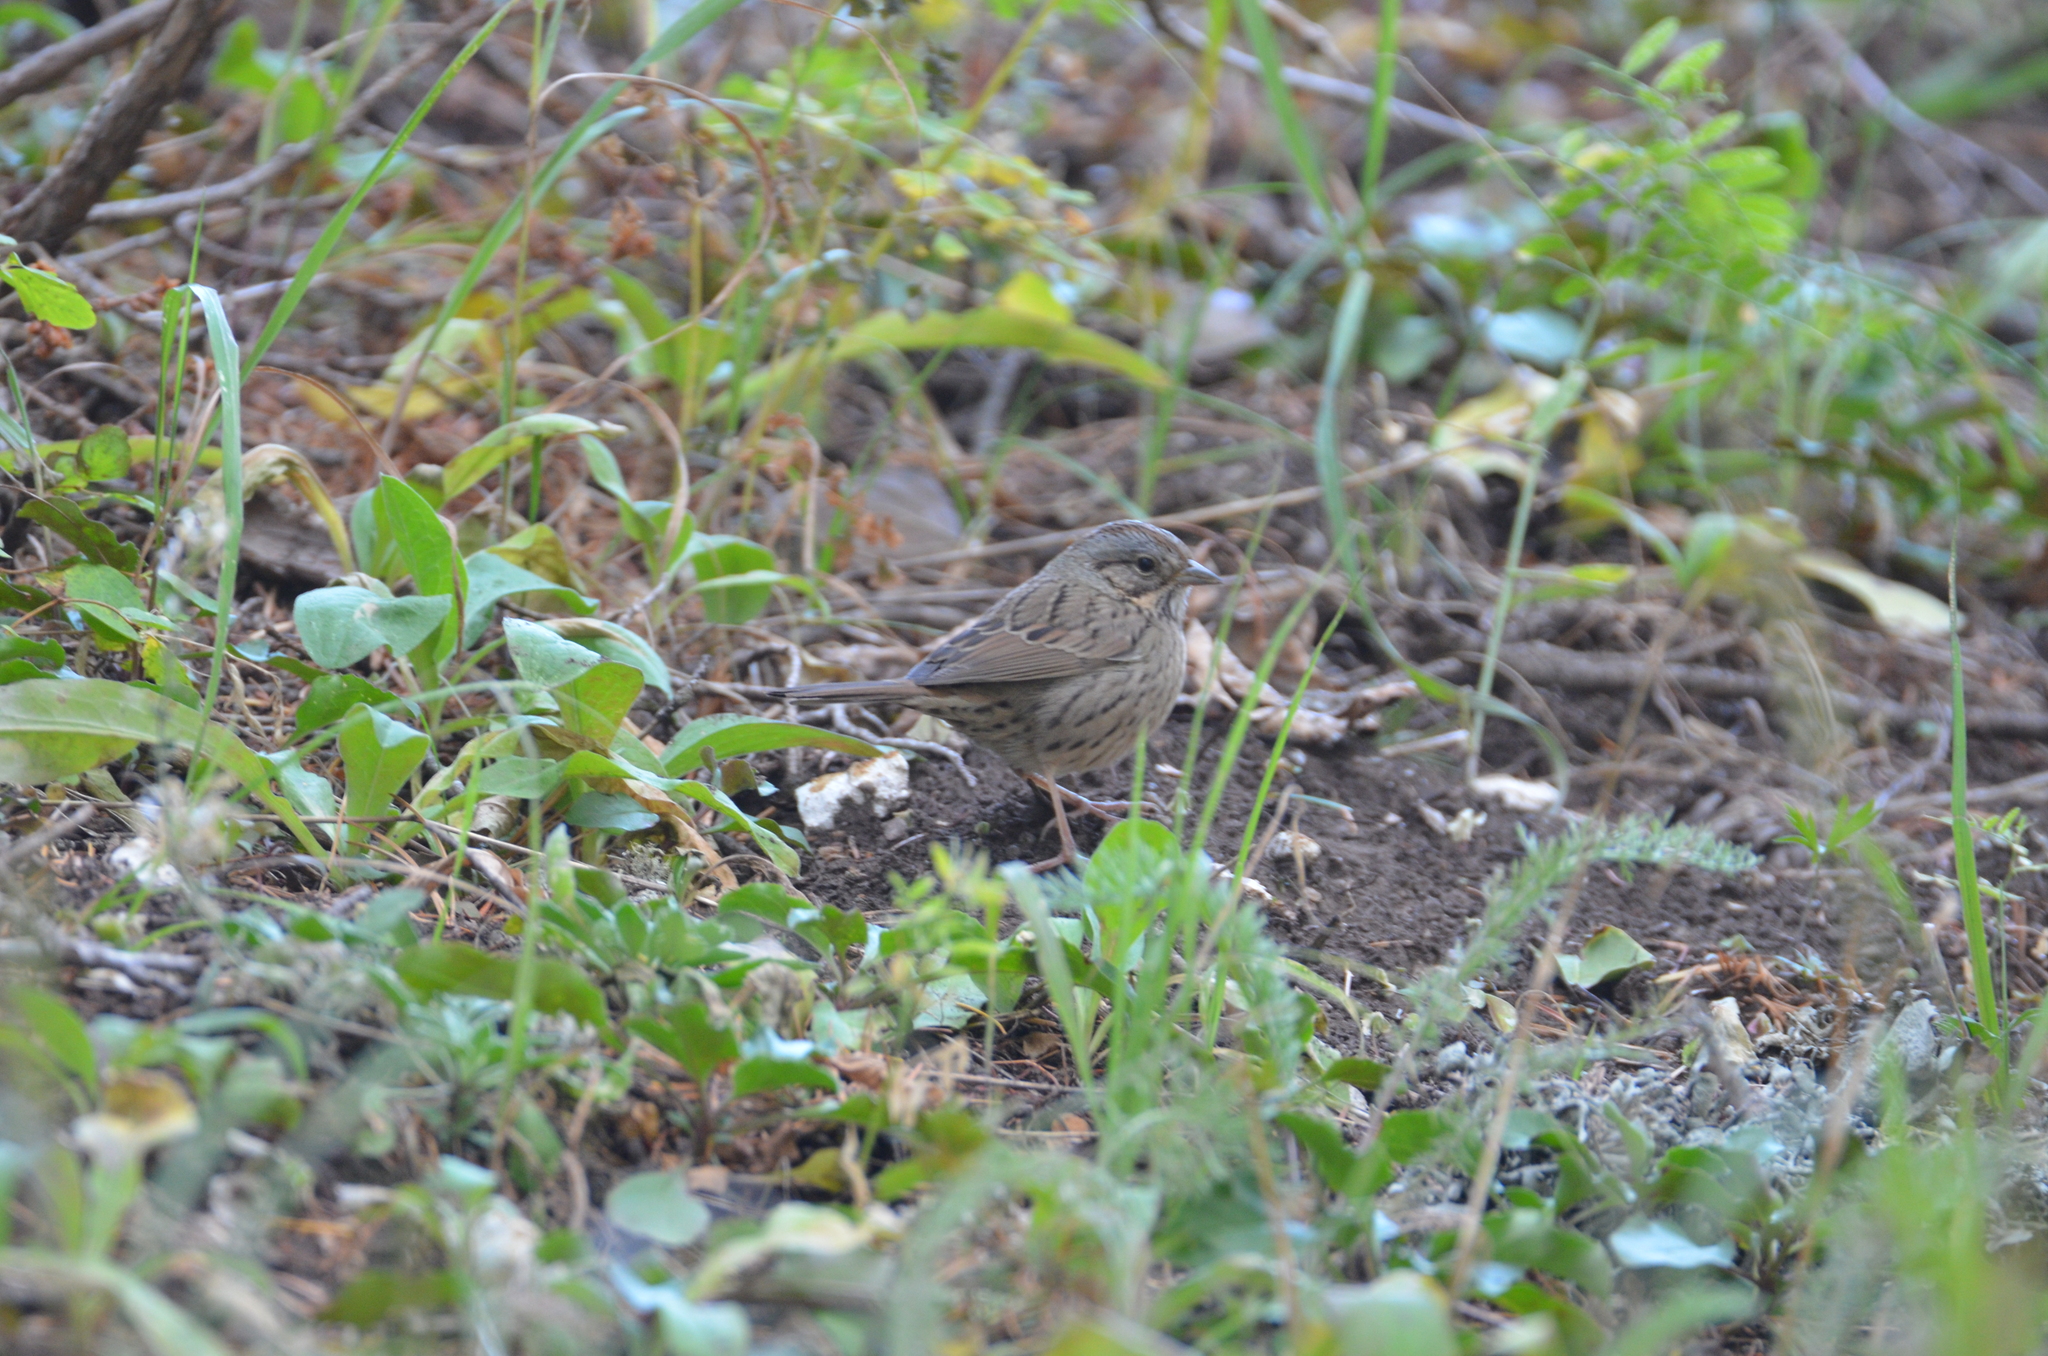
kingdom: Animalia
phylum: Chordata
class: Aves
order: Passeriformes
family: Passerellidae
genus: Melospiza
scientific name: Melospiza lincolnii
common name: Lincoln's sparrow
